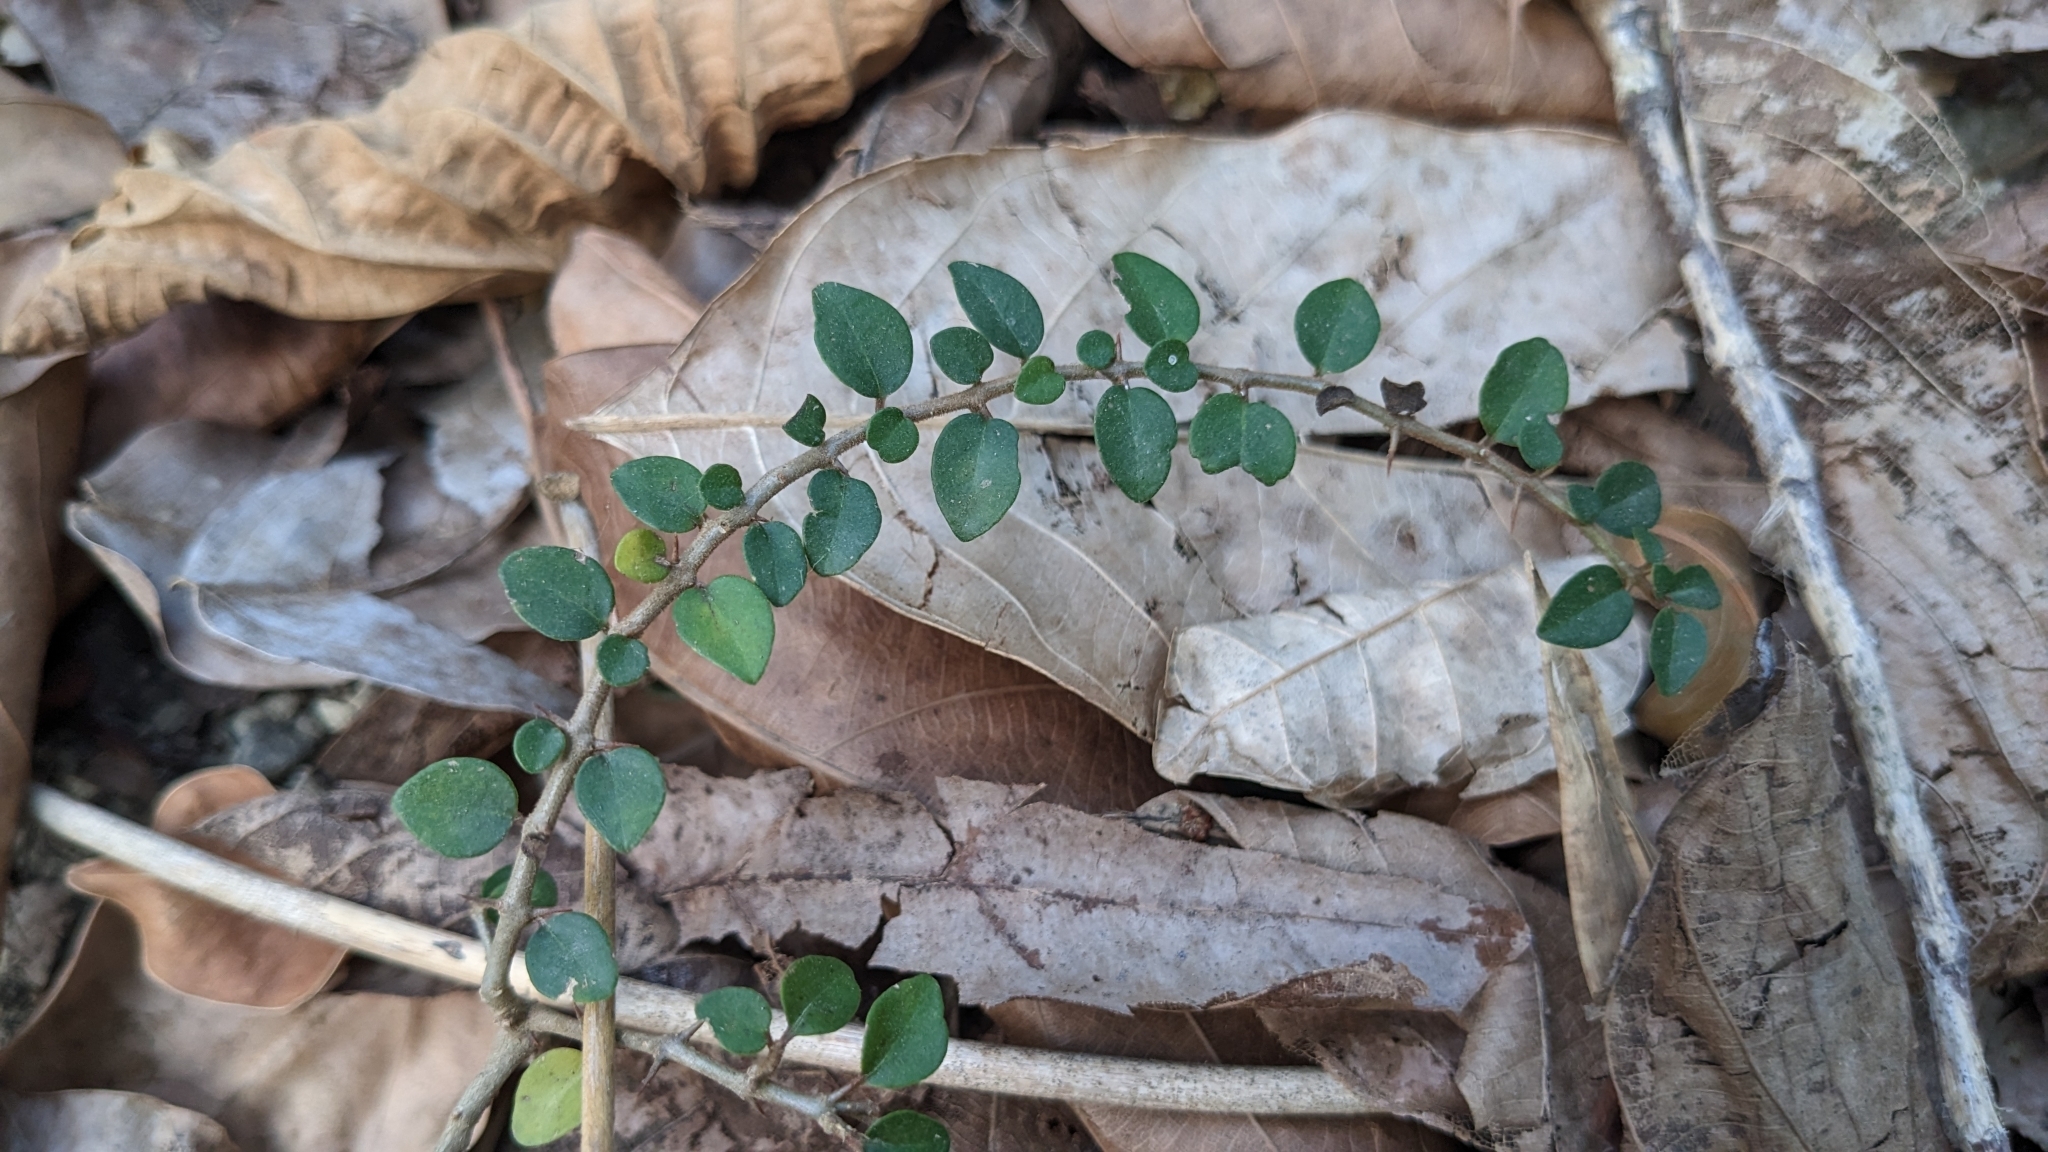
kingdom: Plantae
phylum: Tracheophyta
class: Magnoliopsida
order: Caryophyllales
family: Nyctaginaceae
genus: Pisonia
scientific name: Pisonia aculeata
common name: Cockspur vine
